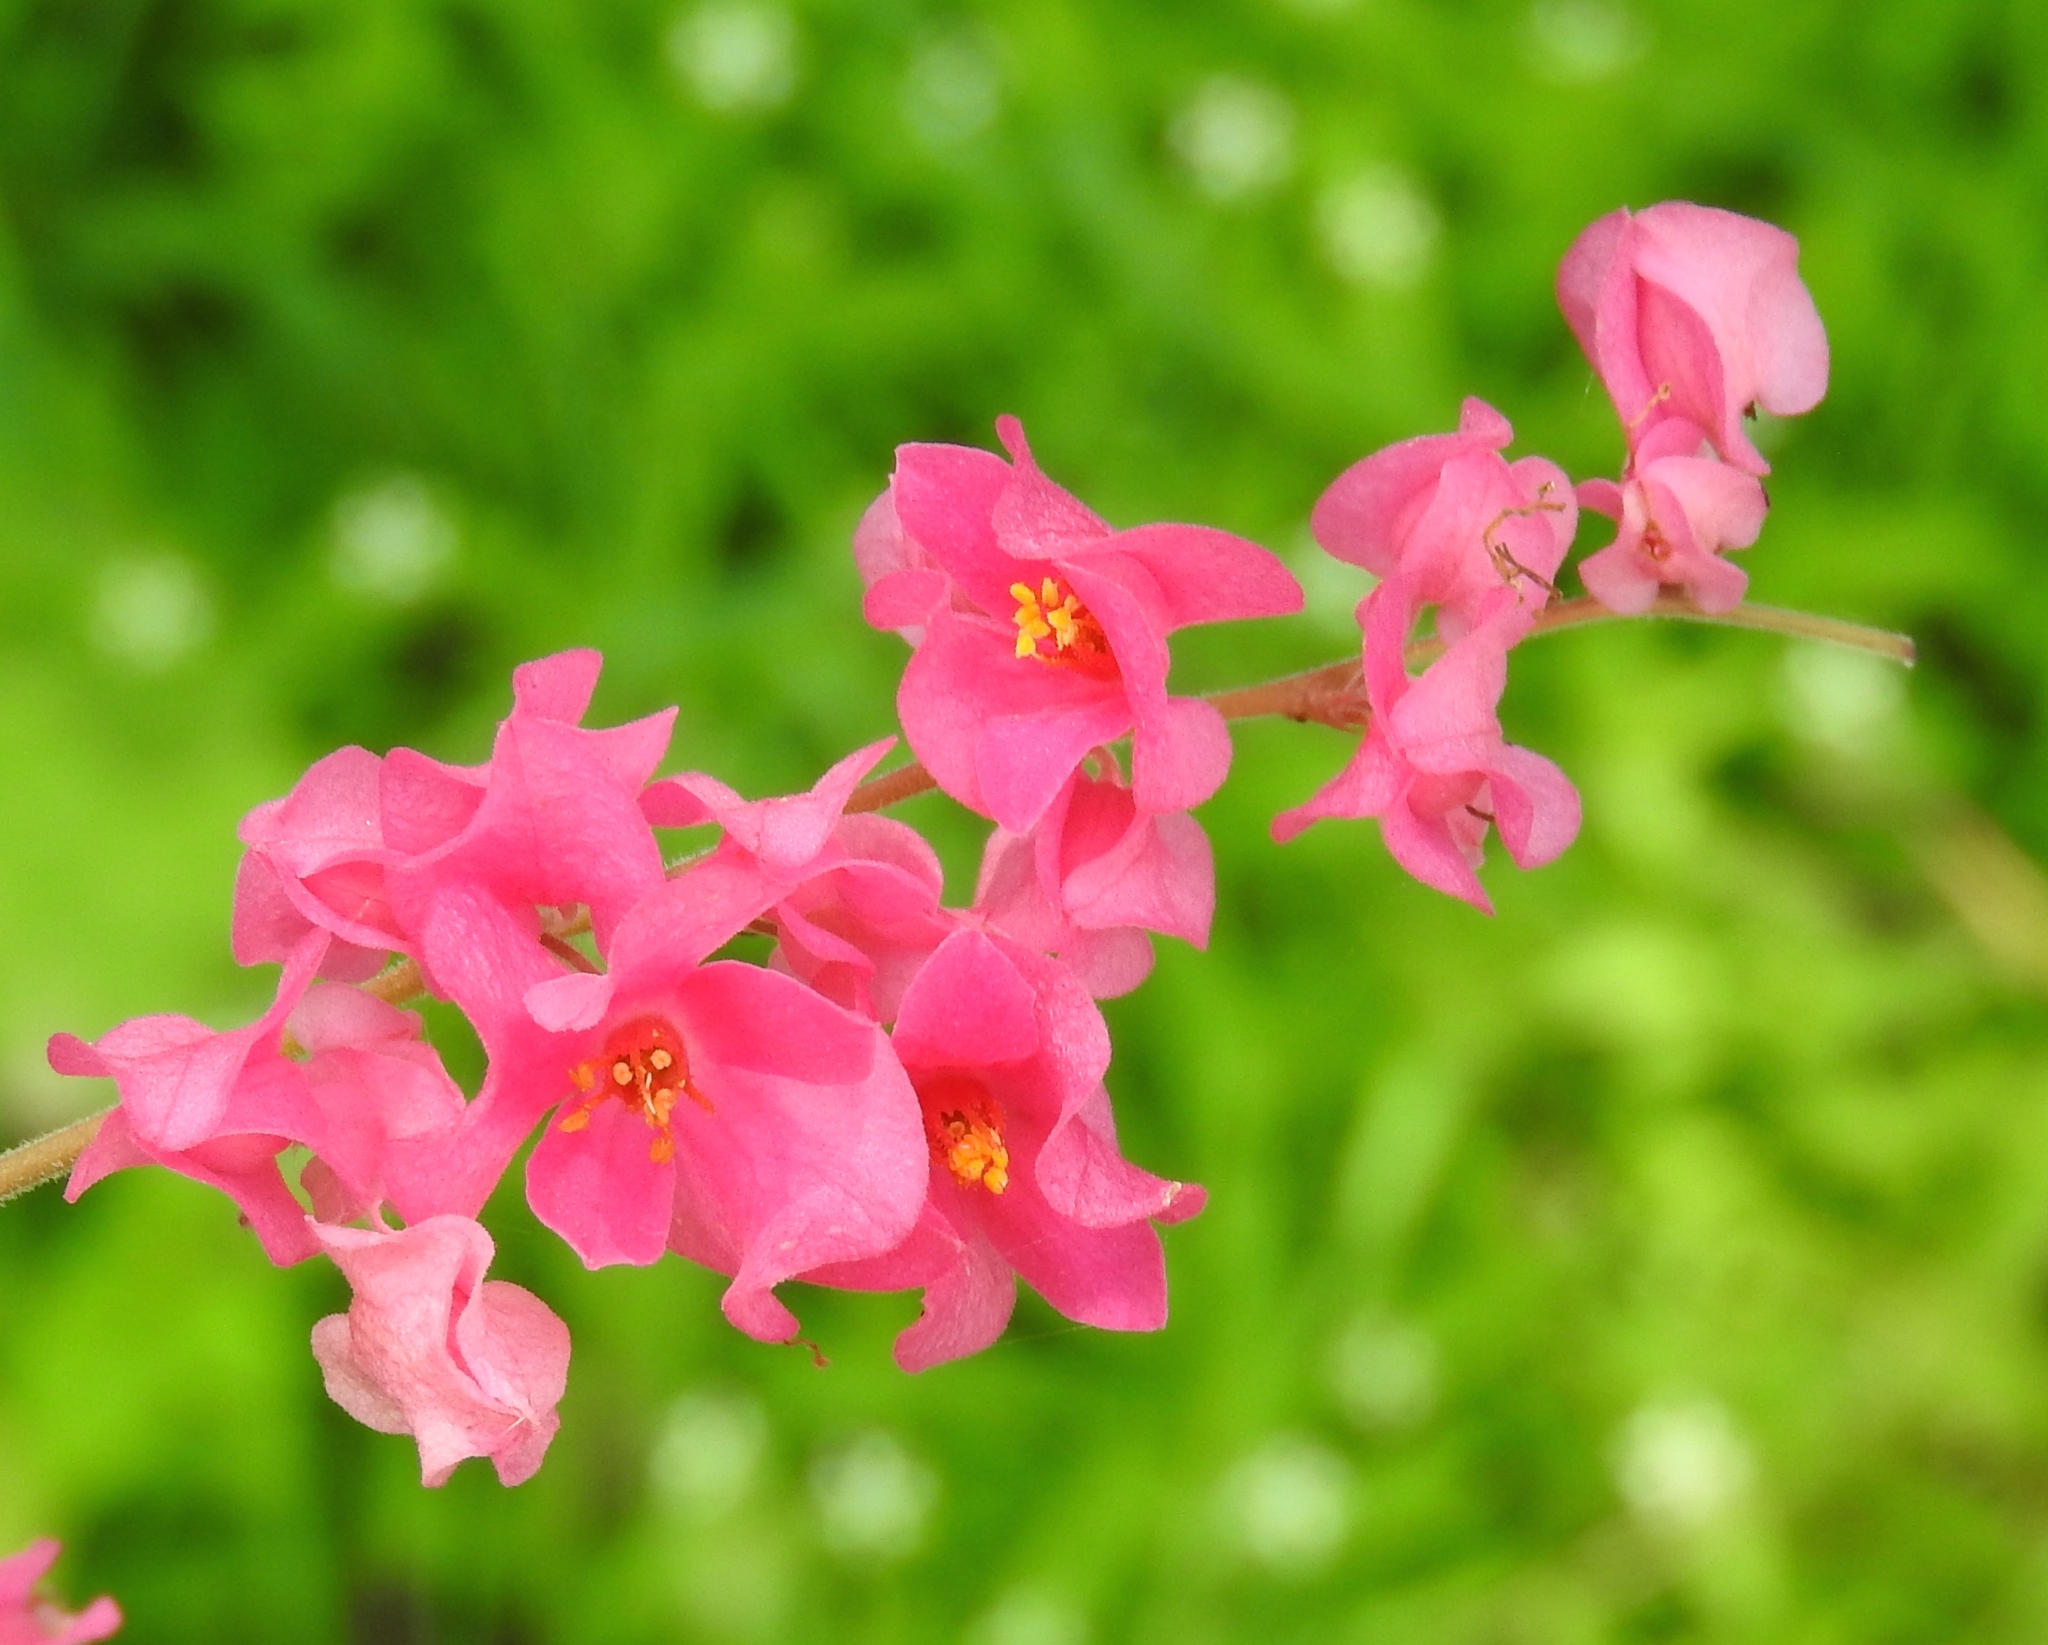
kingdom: Plantae
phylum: Tracheophyta
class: Magnoliopsida
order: Caryophyllales
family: Polygonaceae
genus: Antigonon
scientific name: Antigonon leptopus
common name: Coral vine
